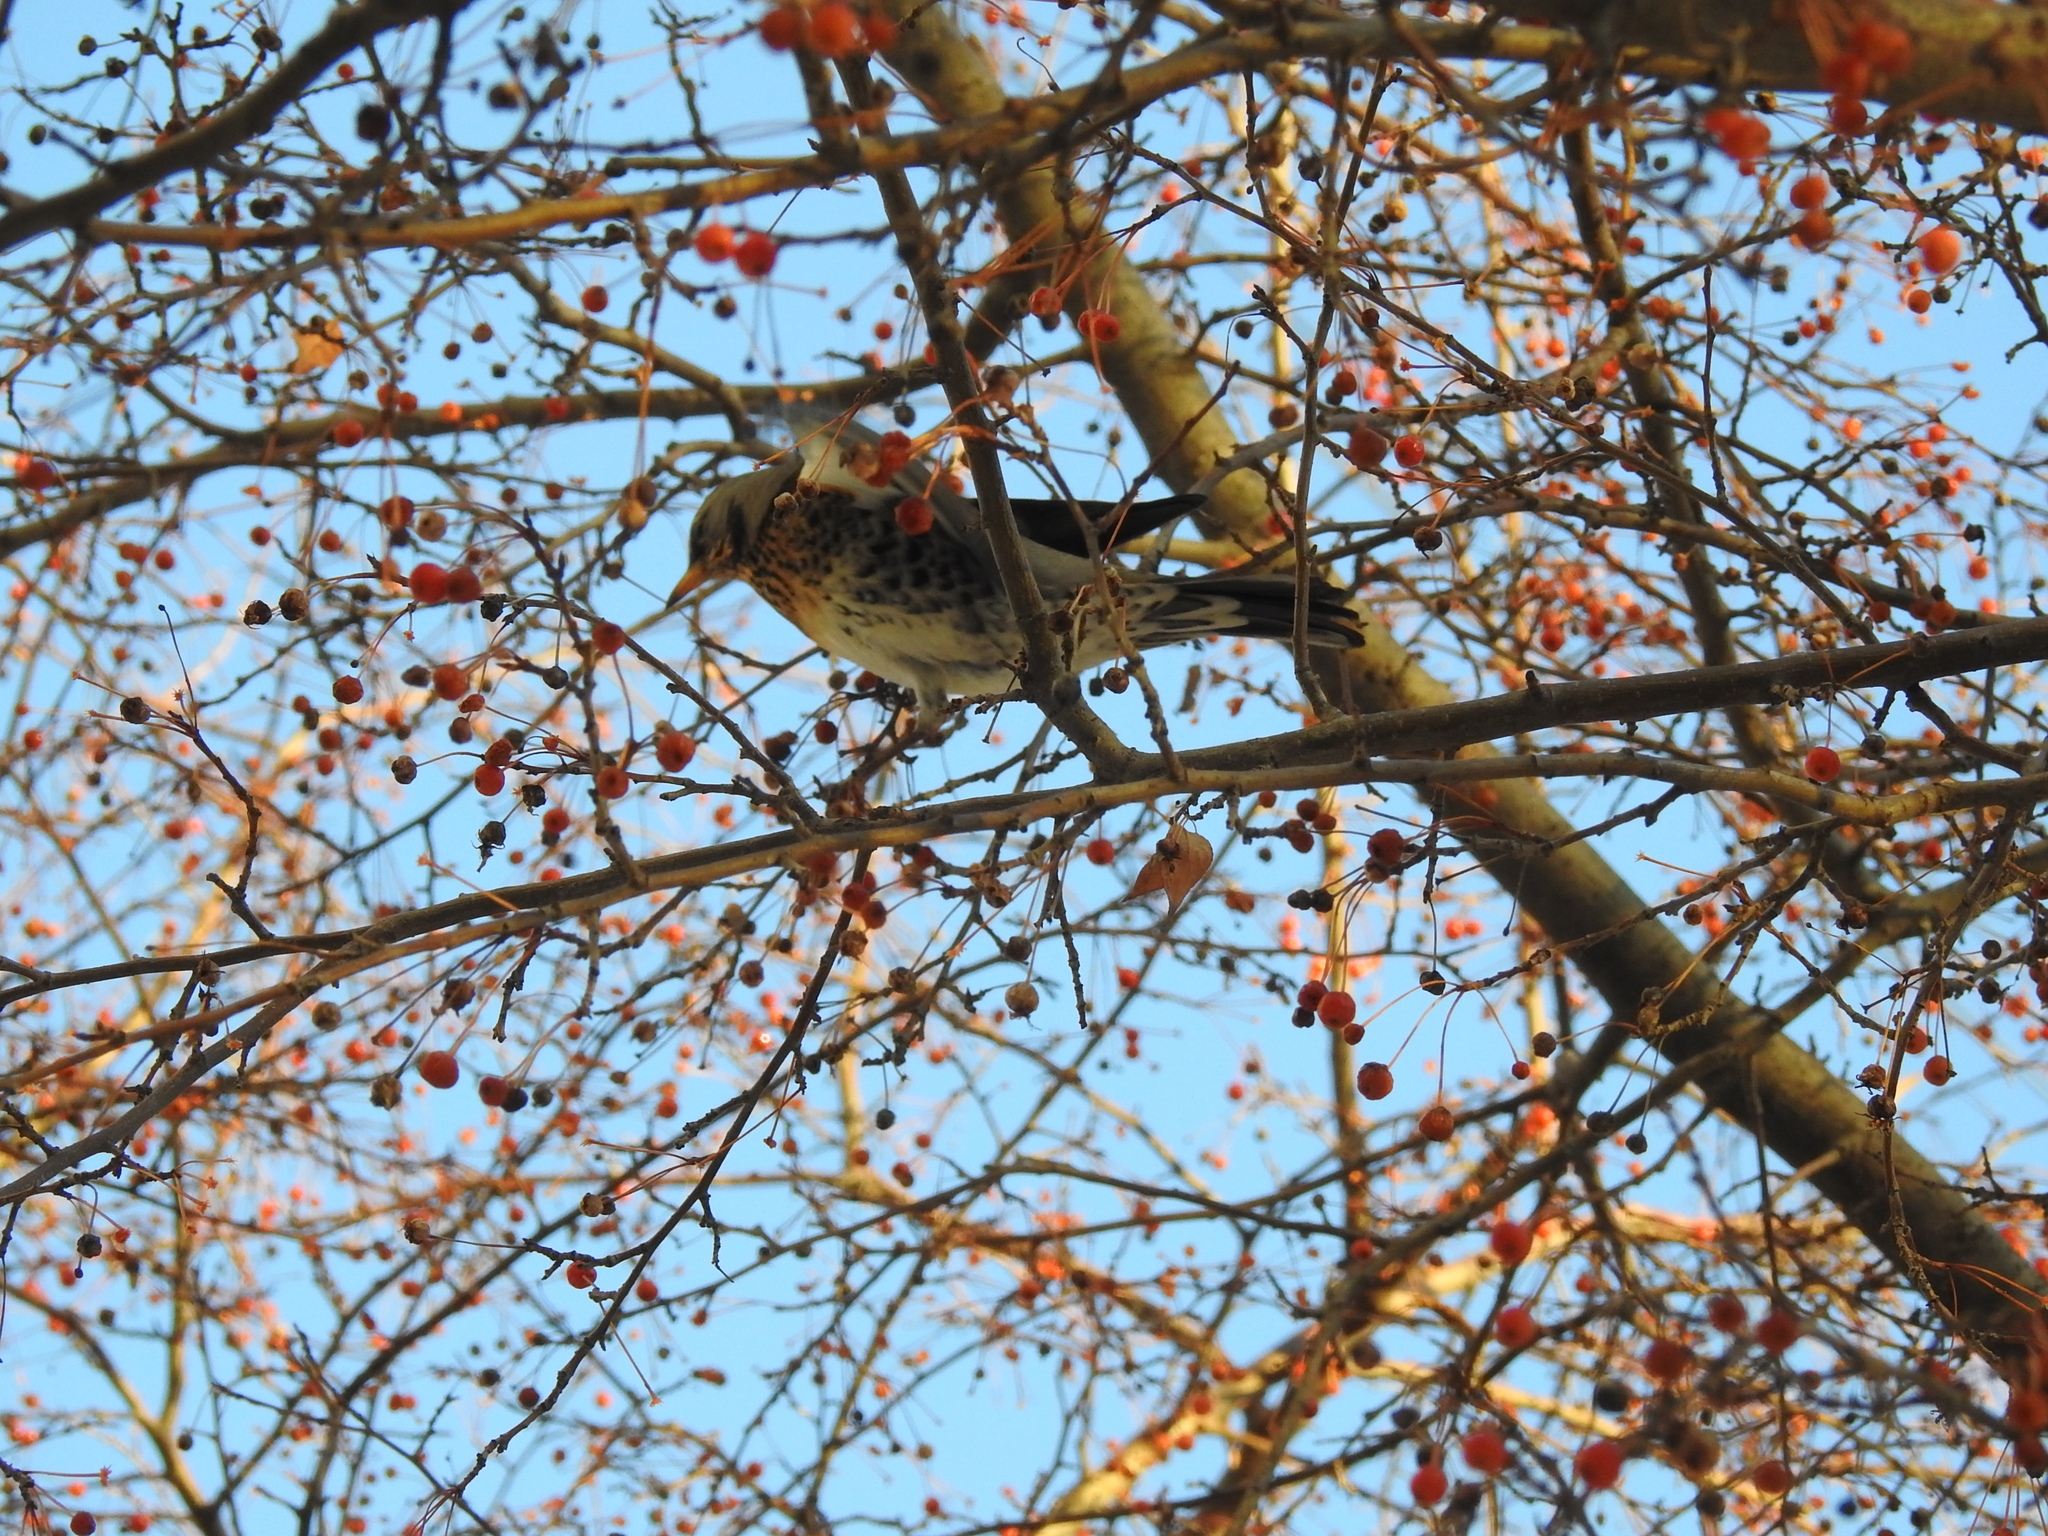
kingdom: Animalia
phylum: Chordata
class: Aves
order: Passeriformes
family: Turdidae
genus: Turdus
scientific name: Turdus pilaris
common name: Fieldfare
